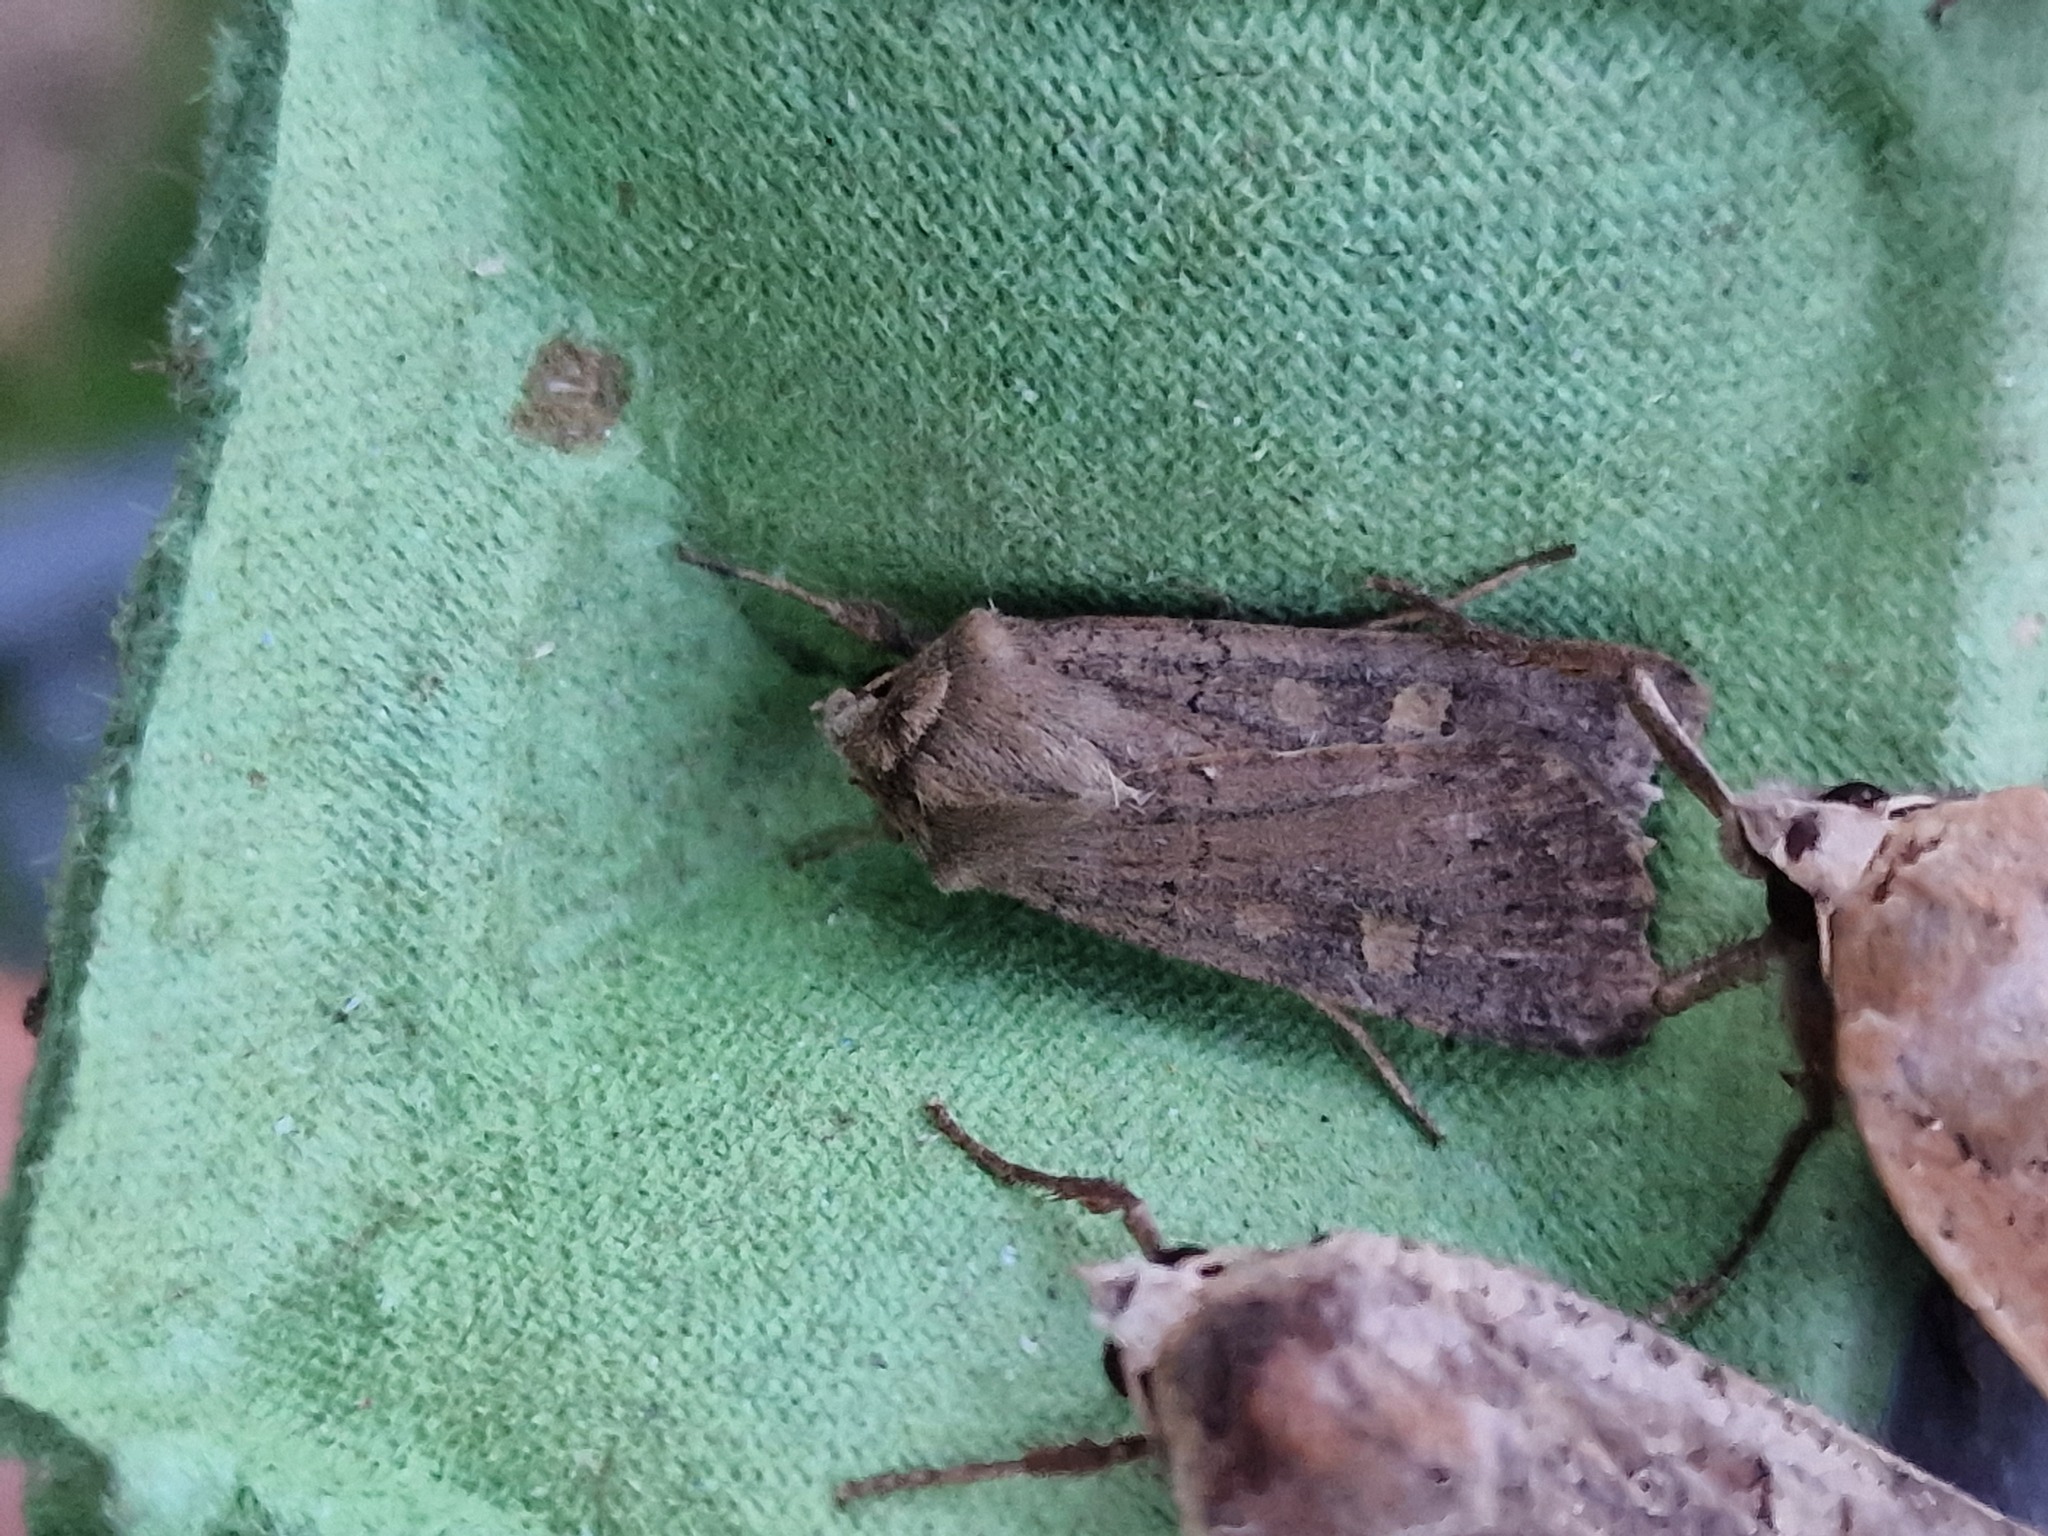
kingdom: Animalia
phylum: Arthropoda
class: Insecta
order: Lepidoptera
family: Noctuidae
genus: Xestia
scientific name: Xestia xanthographa
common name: Square-spot rustic
